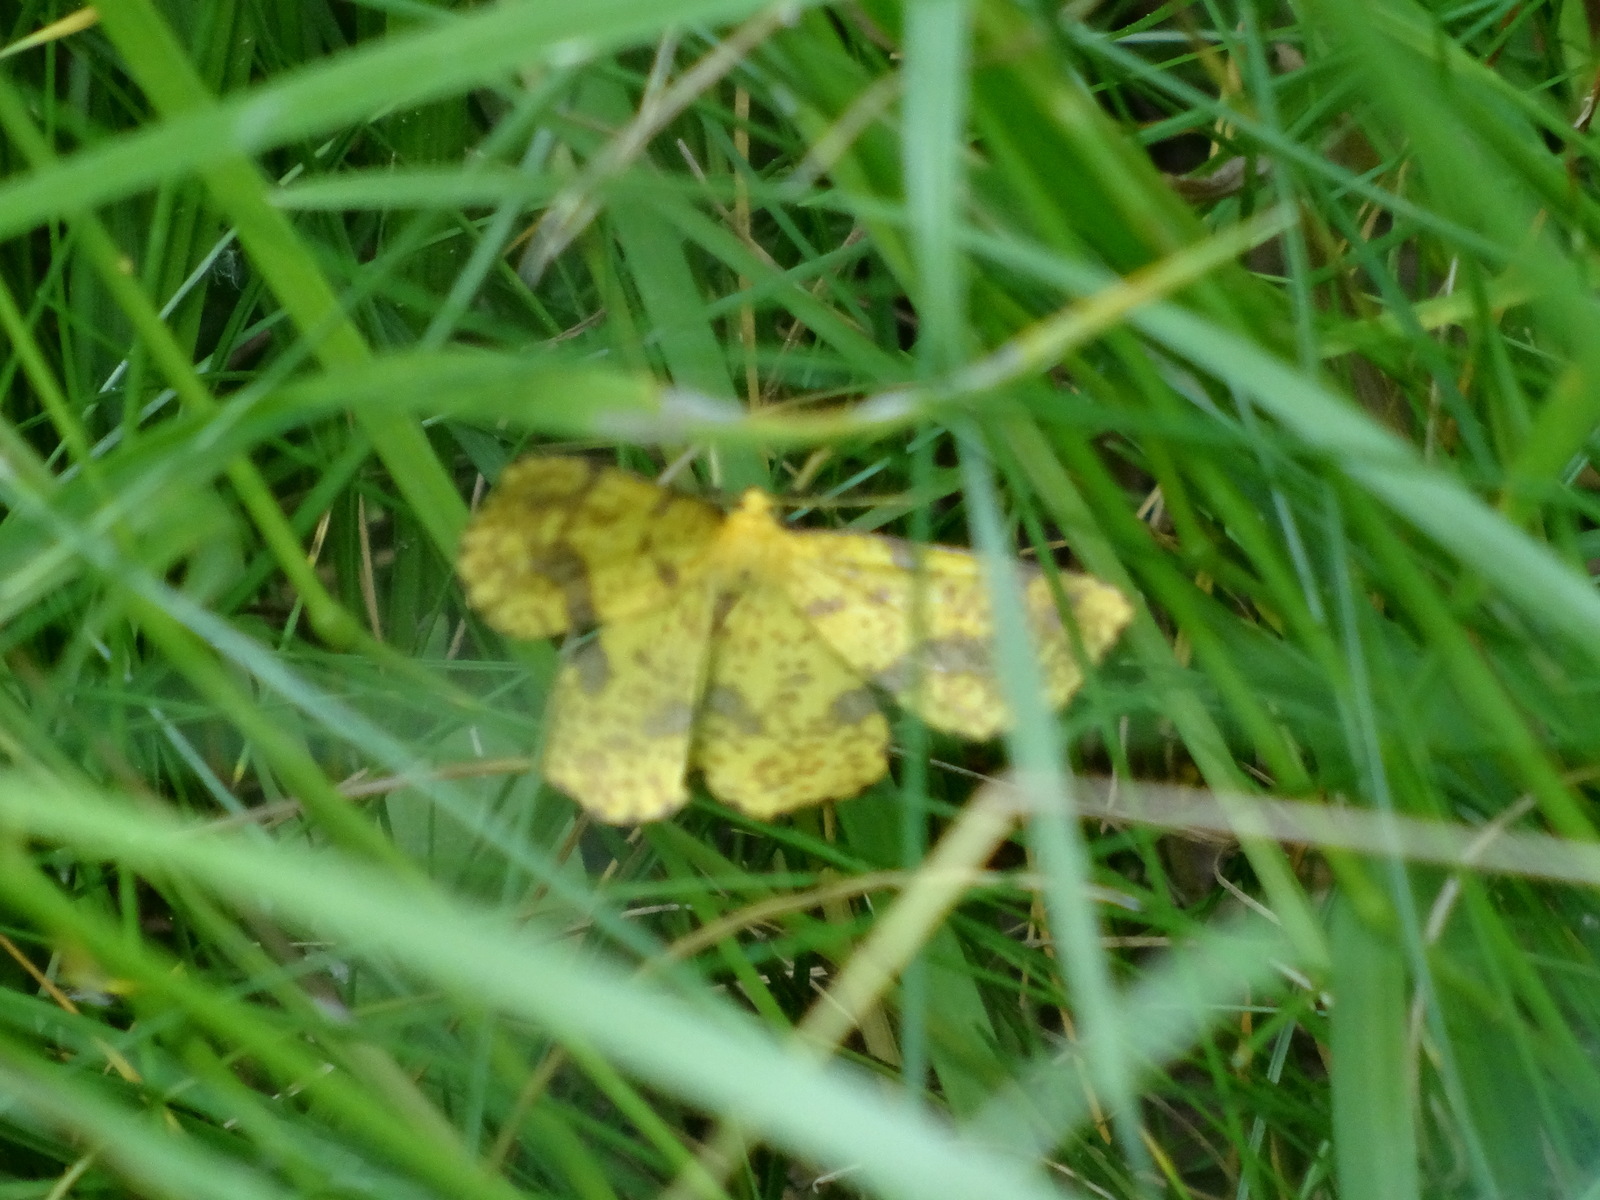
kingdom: Animalia
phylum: Arthropoda
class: Insecta
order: Lepidoptera
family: Geometridae
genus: Xanthotype
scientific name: Xanthotype
